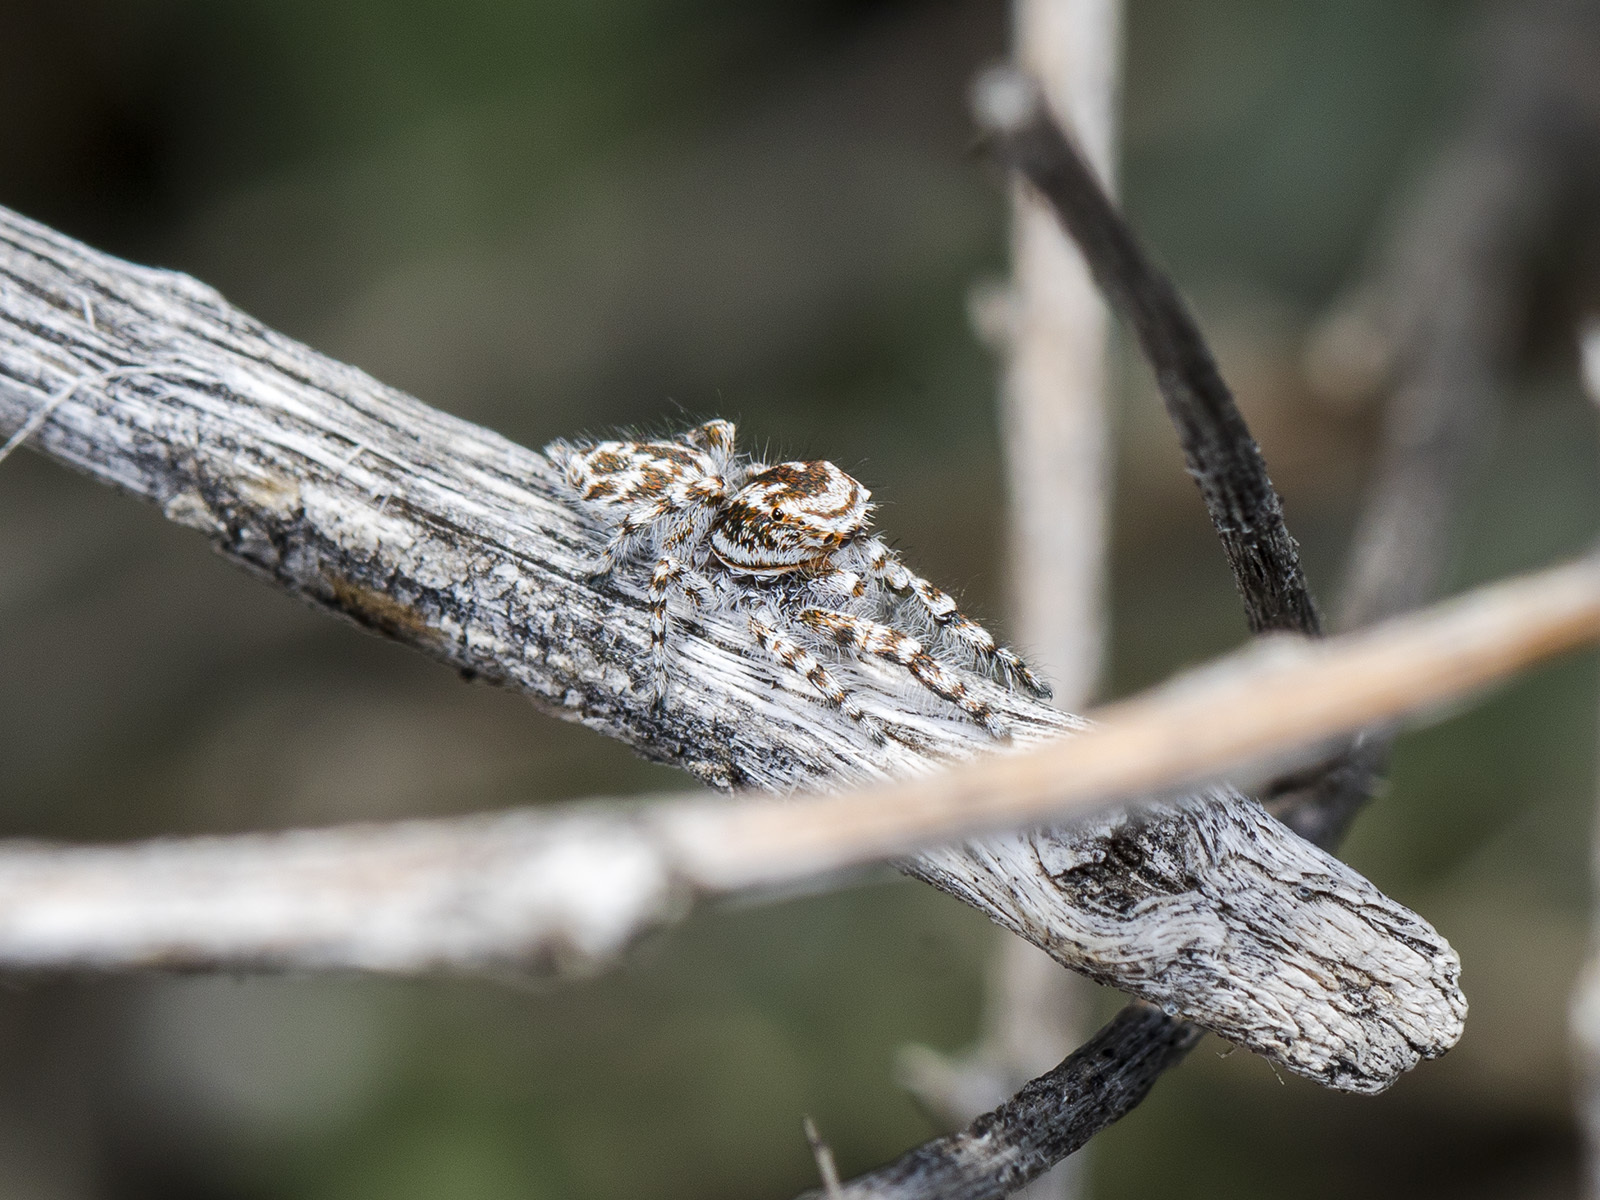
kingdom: Animalia
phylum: Arthropoda
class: Arachnida
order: Araneae
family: Salticidae
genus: Pseudomogrus
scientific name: Pseudomogrus dalaensis
